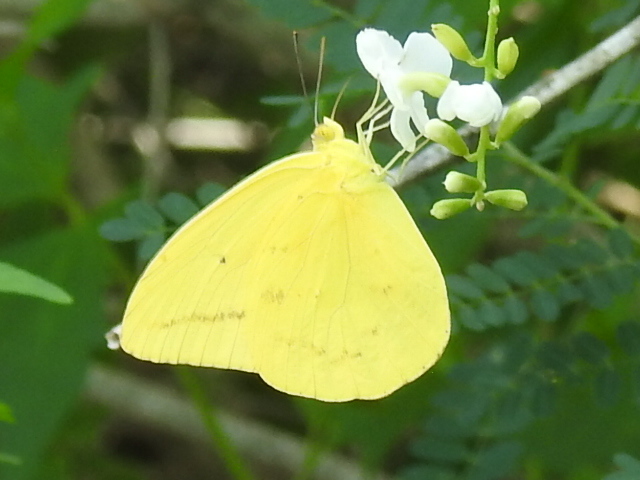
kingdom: Animalia
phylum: Arthropoda
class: Insecta
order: Lepidoptera
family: Pieridae
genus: Phoebis
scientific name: Phoebis agarithe
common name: Large orange sulphur
